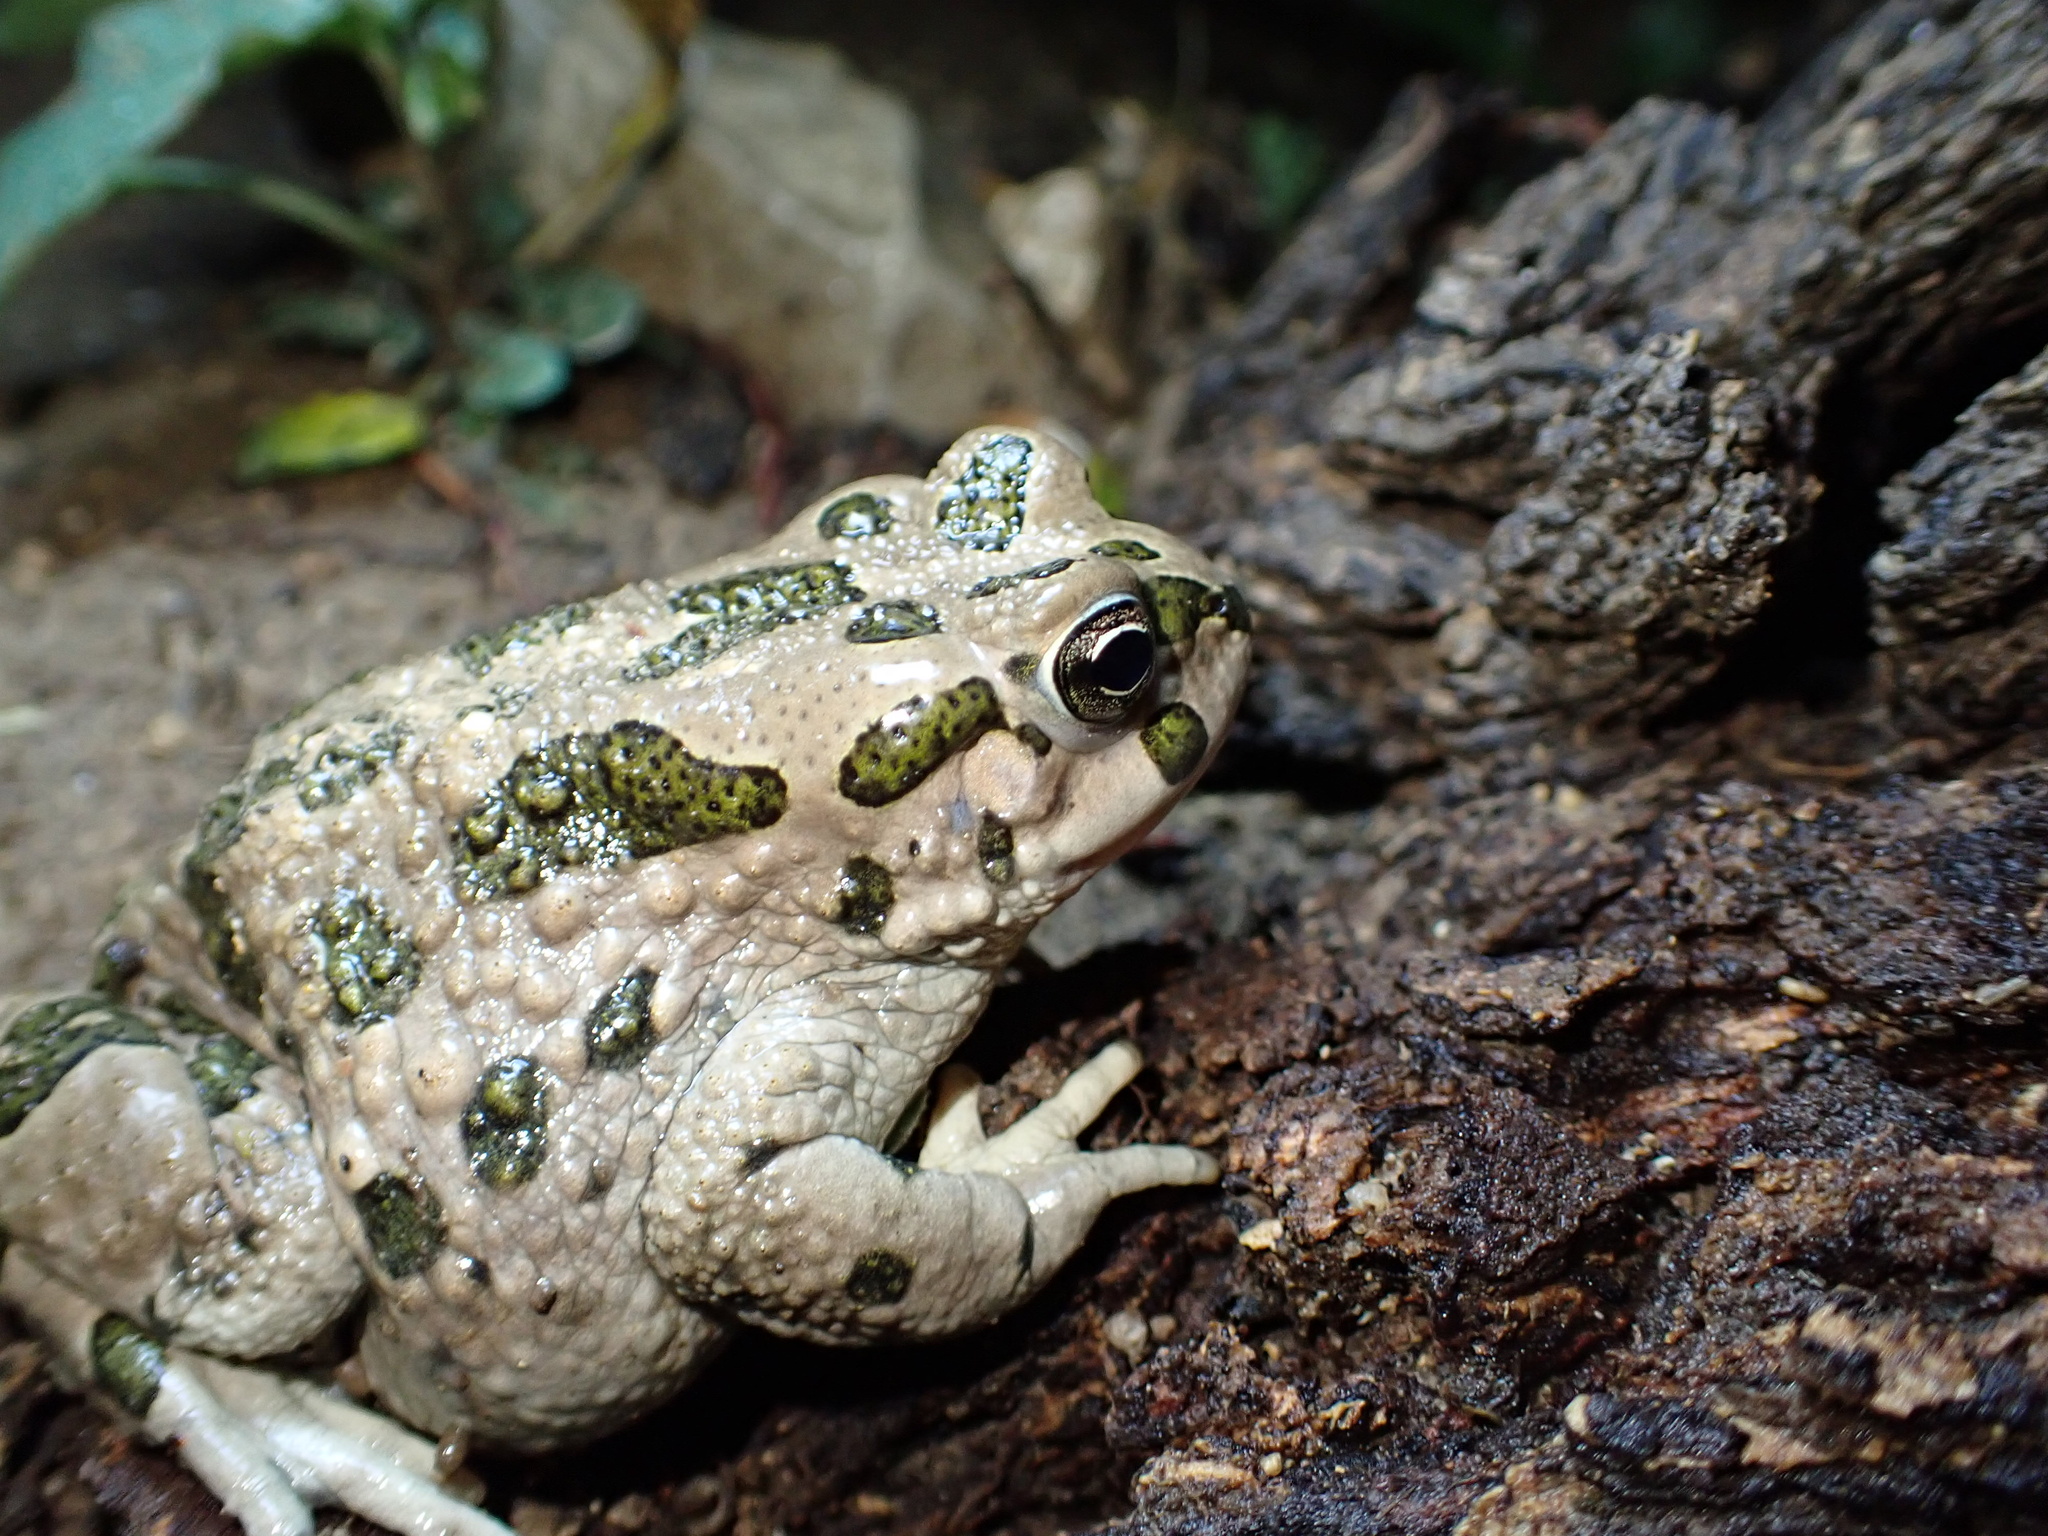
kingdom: Animalia
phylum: Chordata
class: Amphibia
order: Anura
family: Bufonidae
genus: Bufotes
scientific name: Bufotes viridis
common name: European green toad
